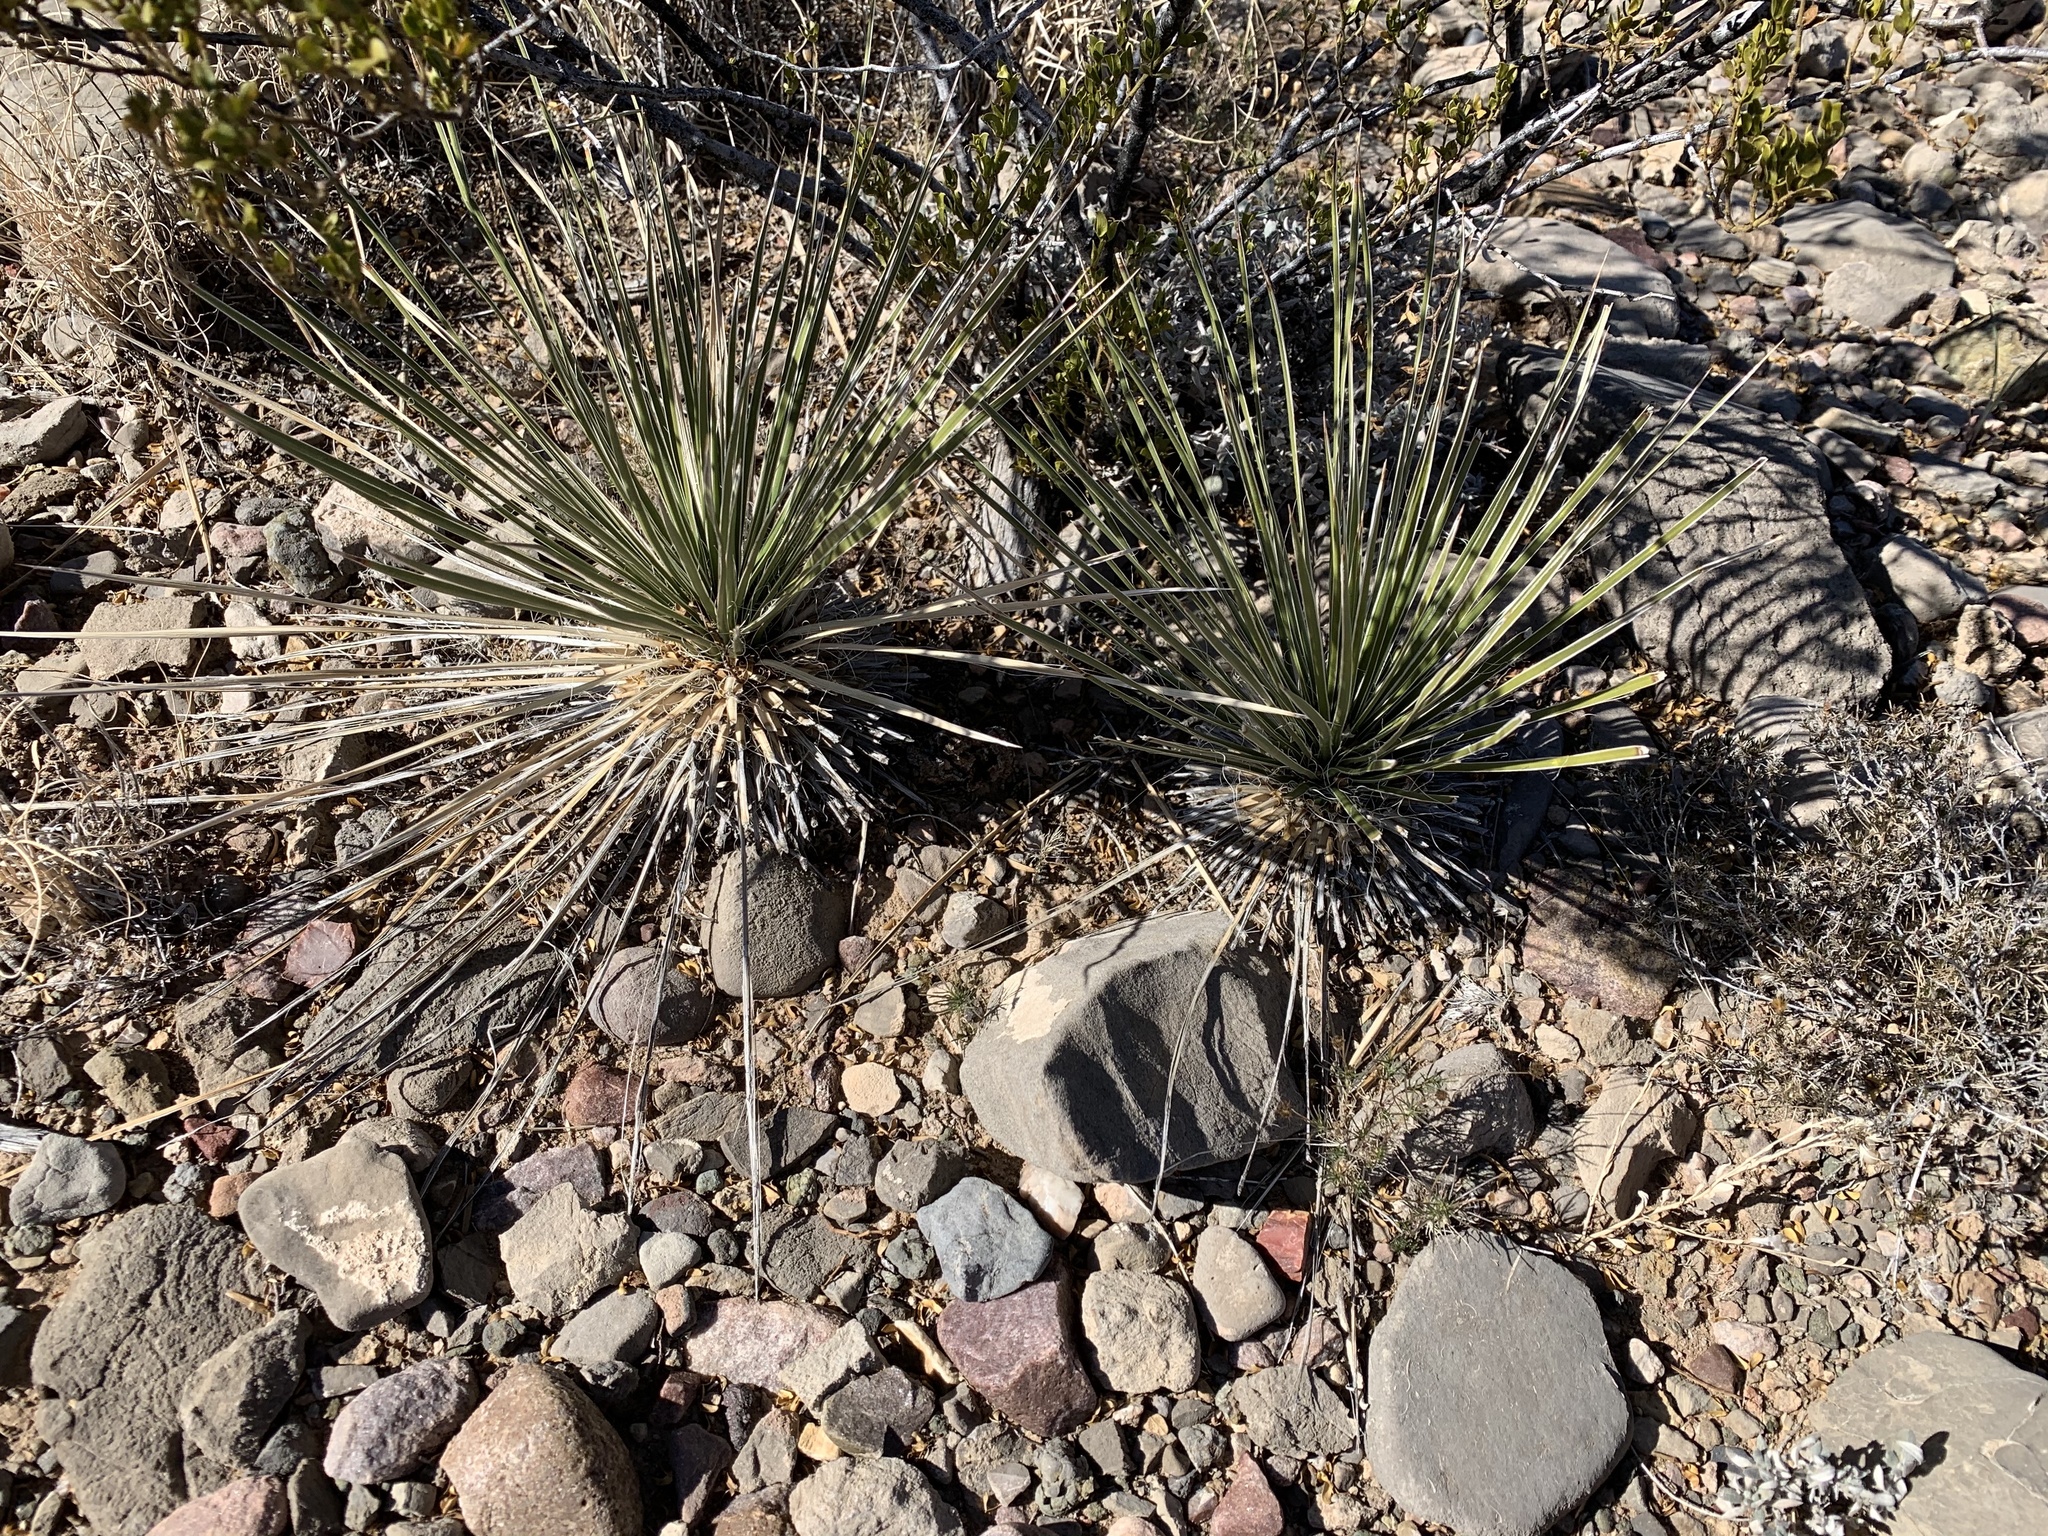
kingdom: Plantae
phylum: Tracheophyta
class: Liliopsida
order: Asparagales
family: Asparagaceae
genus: Yucca
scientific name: Yucca elata
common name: Palmella
